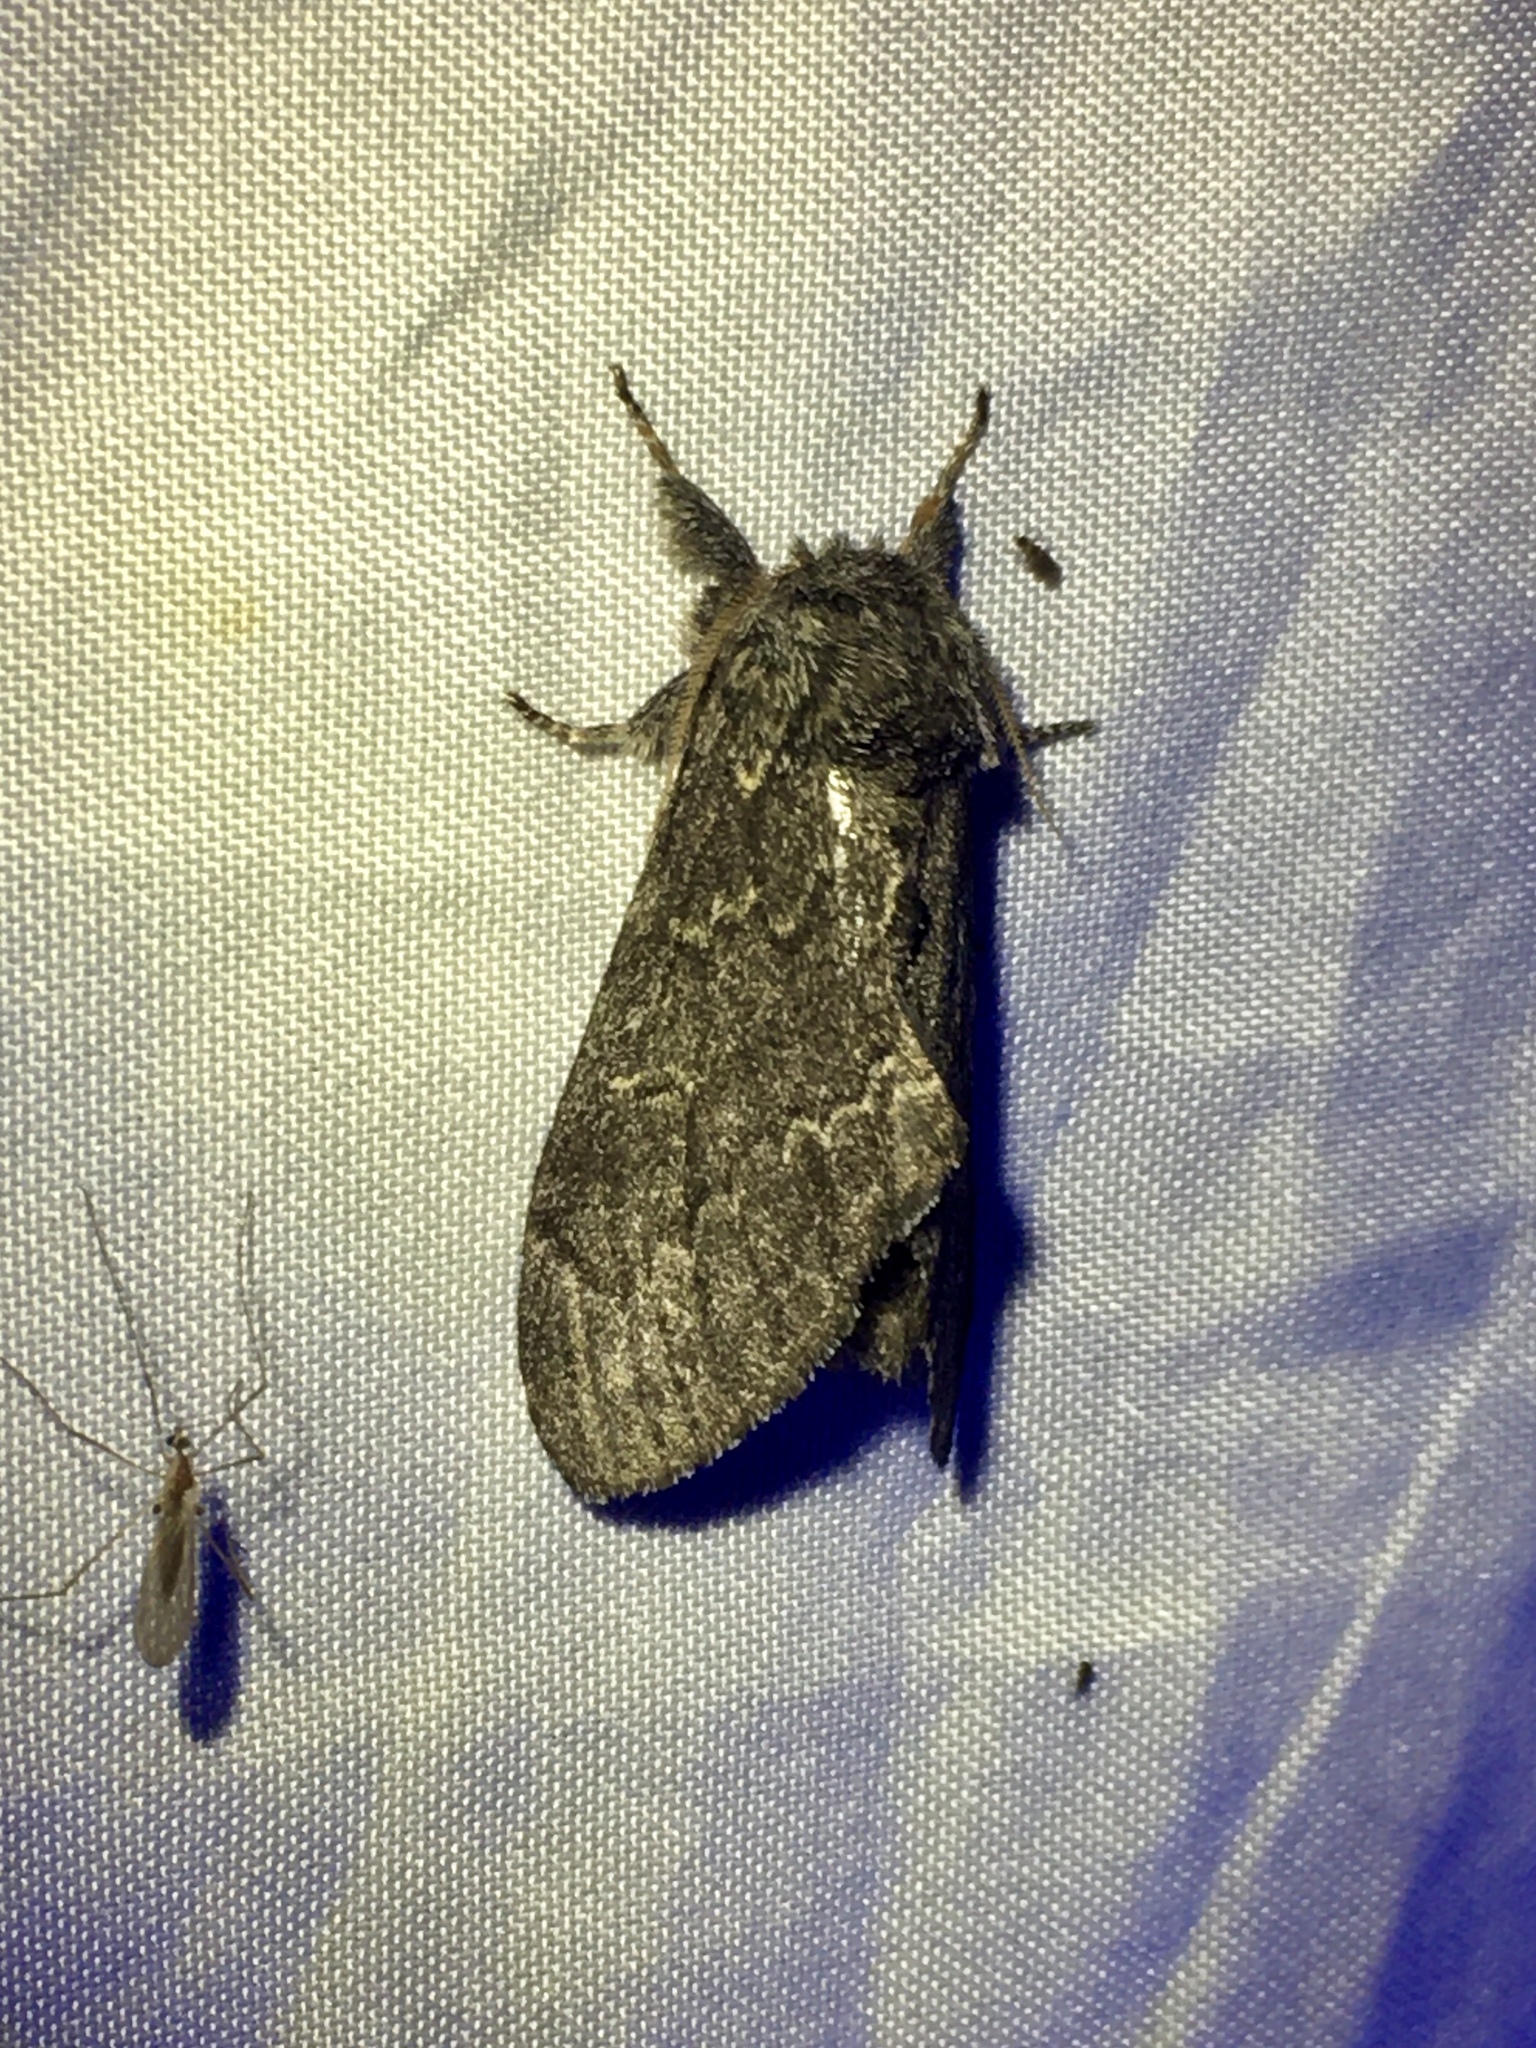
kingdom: Animalia
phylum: Arthropoda
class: Insecta
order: Lepidoptera
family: Notodontidae
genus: Notodonta
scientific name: Notodonta torva
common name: Large dark prominent
